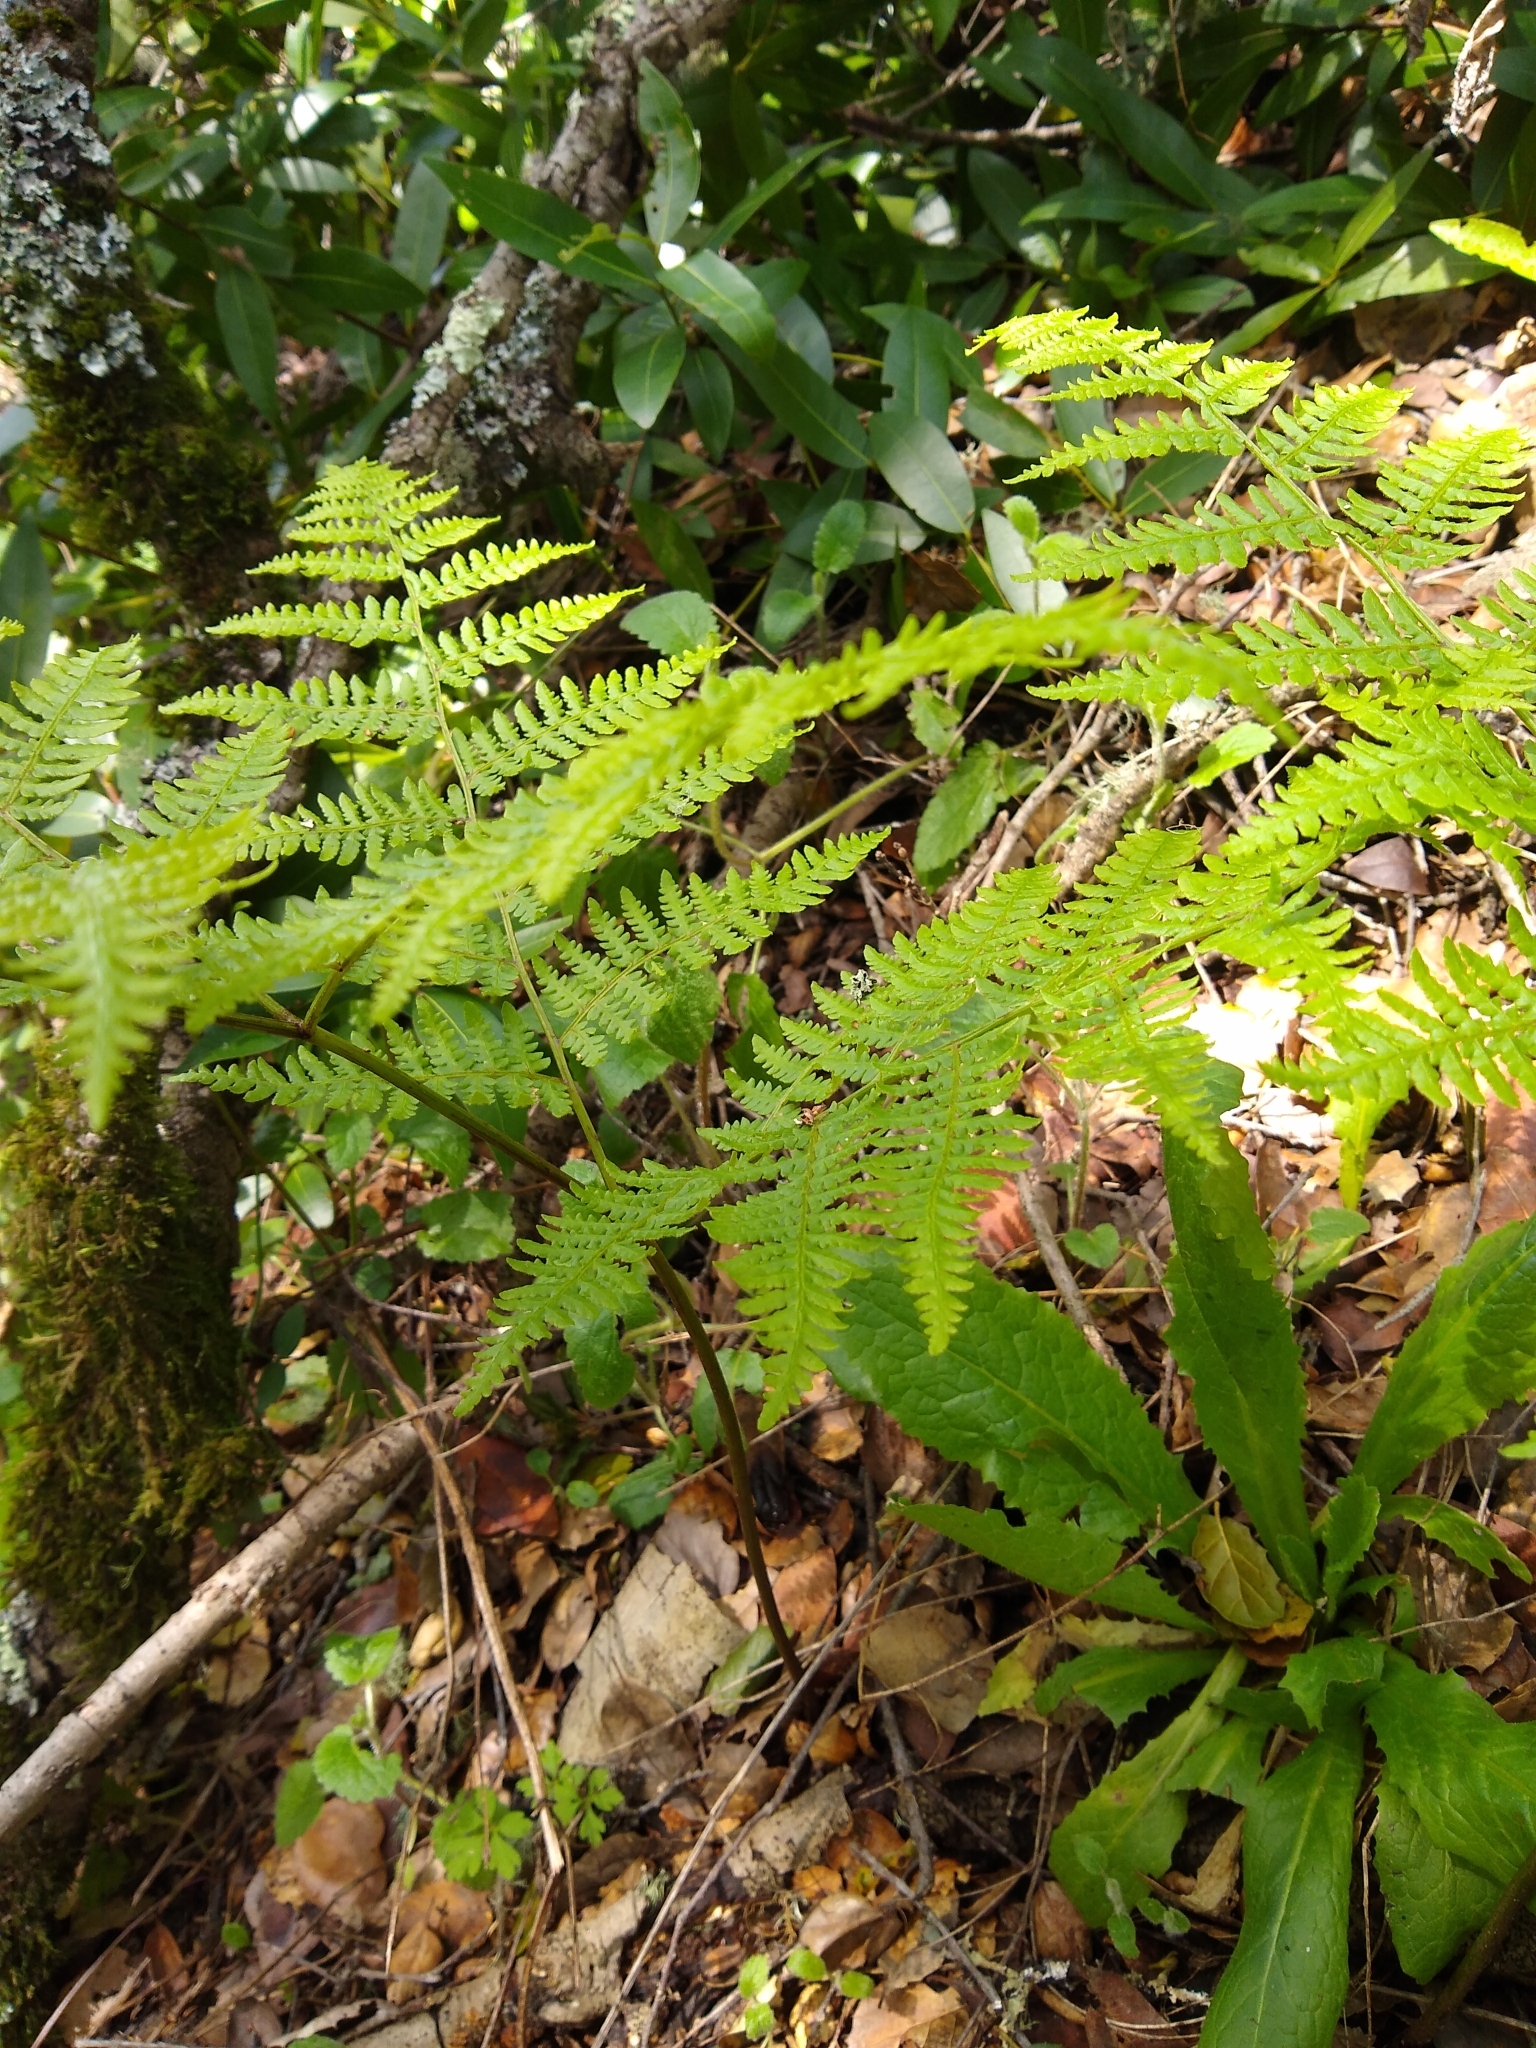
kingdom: Plantae
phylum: Tracheophyta
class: Polypodiopsida
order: Polypodiales
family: Dennstaedtiaceae
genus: Pteridium
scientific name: Pteridium aquilinum
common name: Bracken
